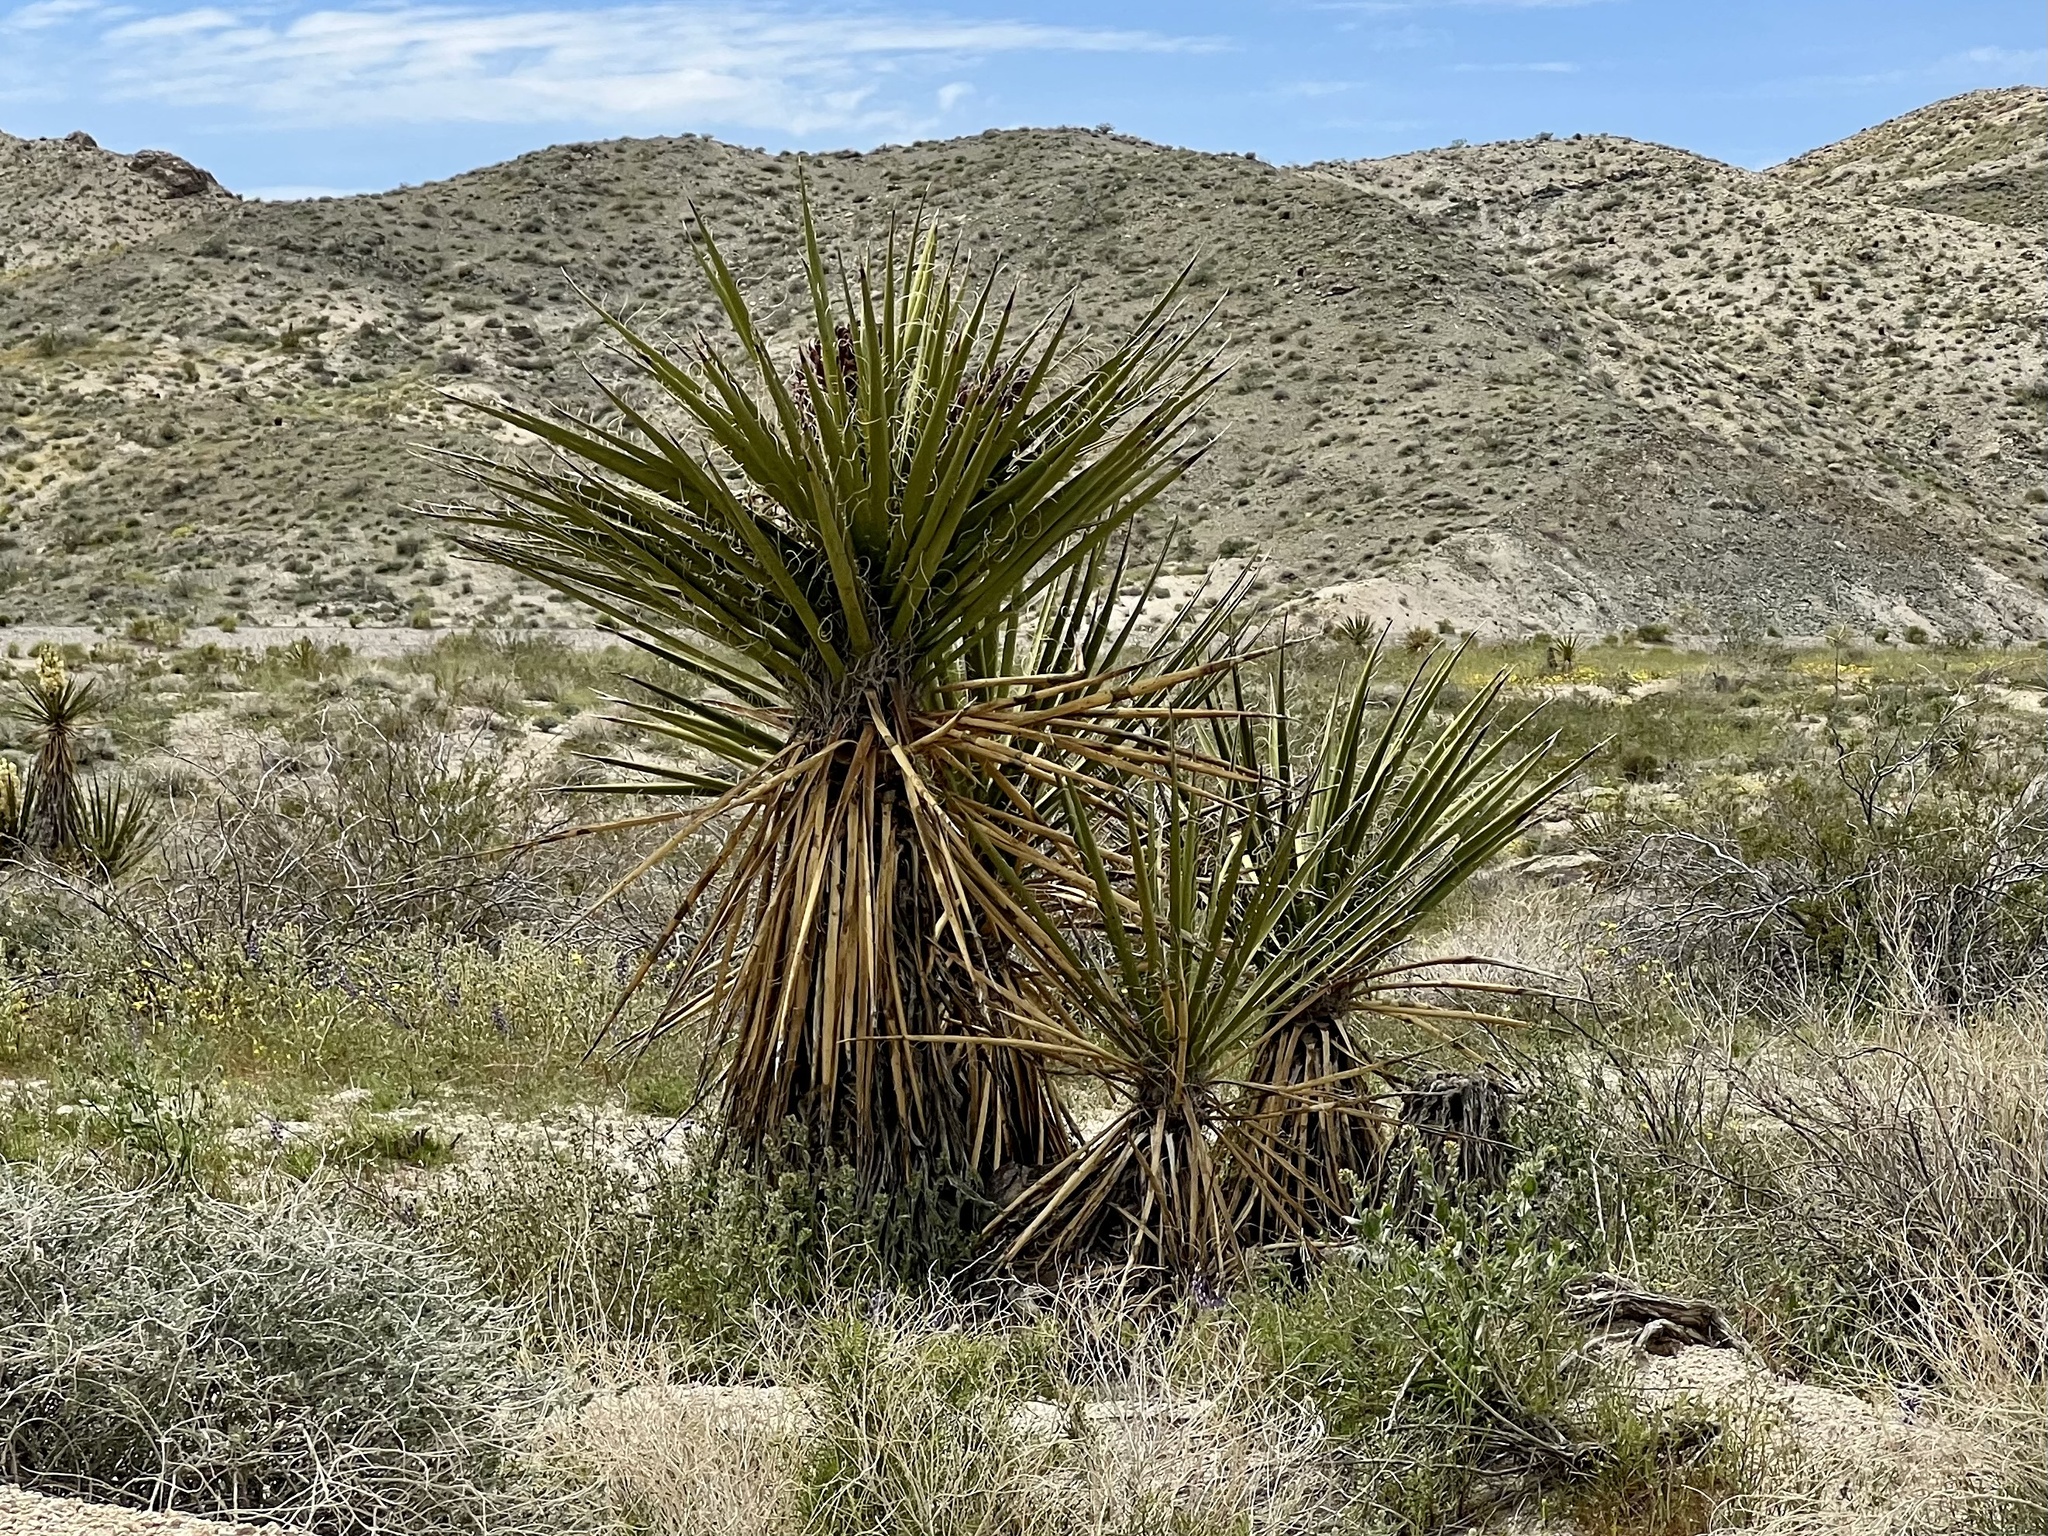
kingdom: Plantae
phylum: Tracheophyta
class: Liliopsida
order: Asparagales
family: Asparagaceae
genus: Yucca
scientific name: Yucca schidigera
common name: Mojave yucca
